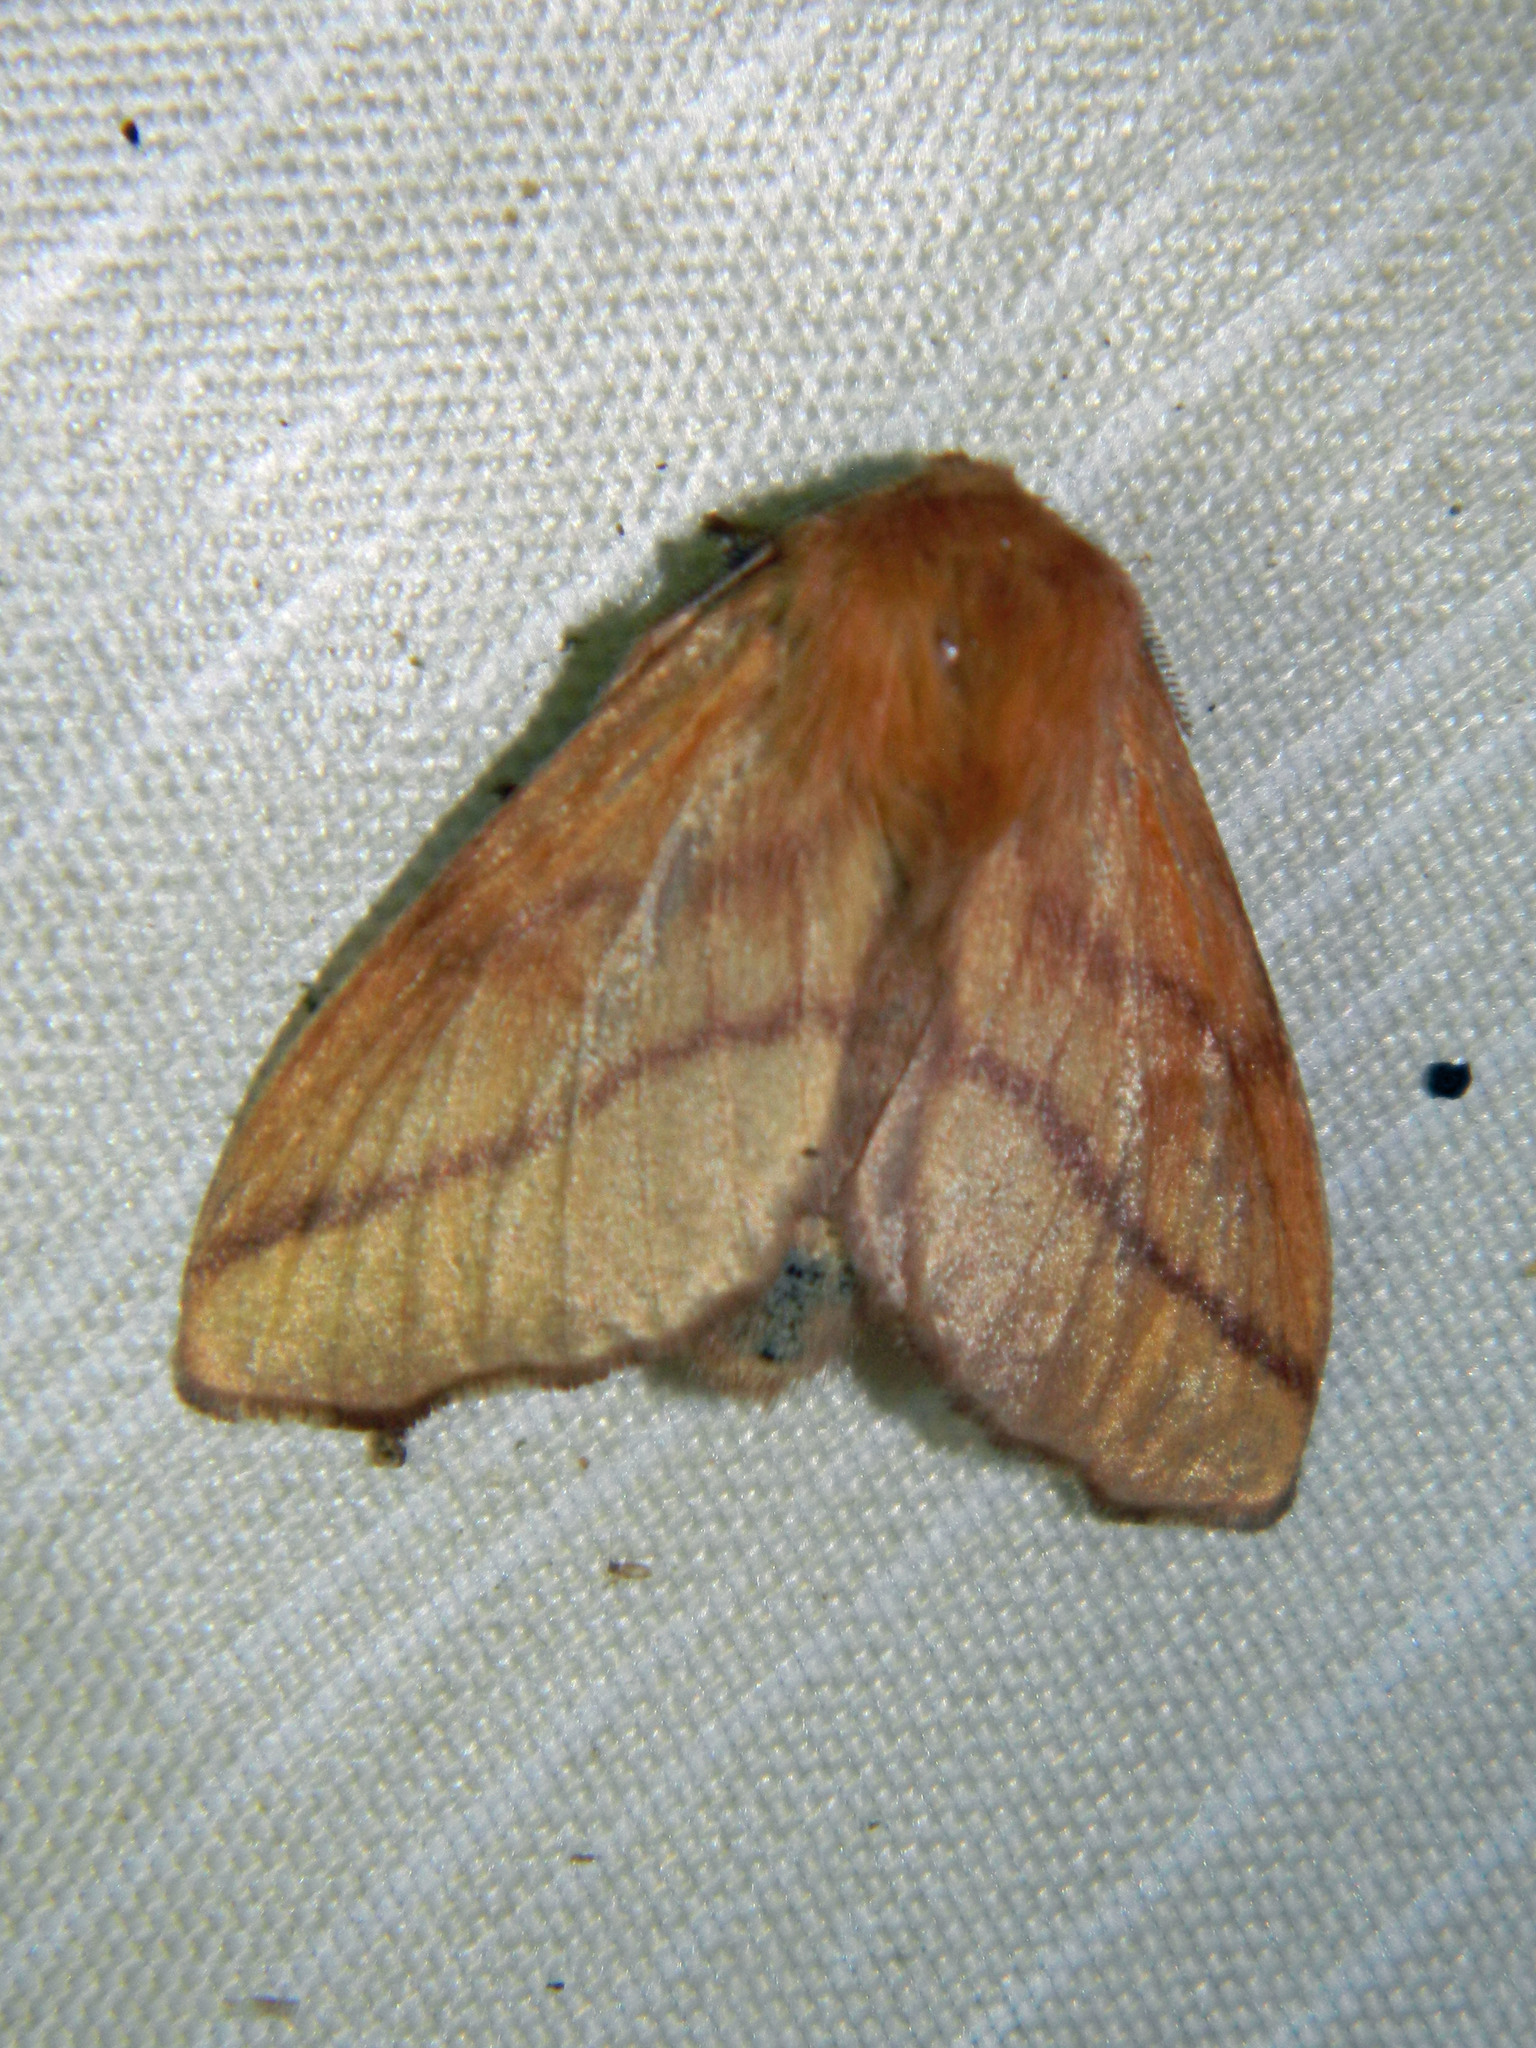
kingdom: Animalia
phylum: Arthropoda
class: Insecta
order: Lepidoptera
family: Lasiocampidae
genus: Malacosoma
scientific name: Malacosoma disstria
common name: Forest tent caterpillar
